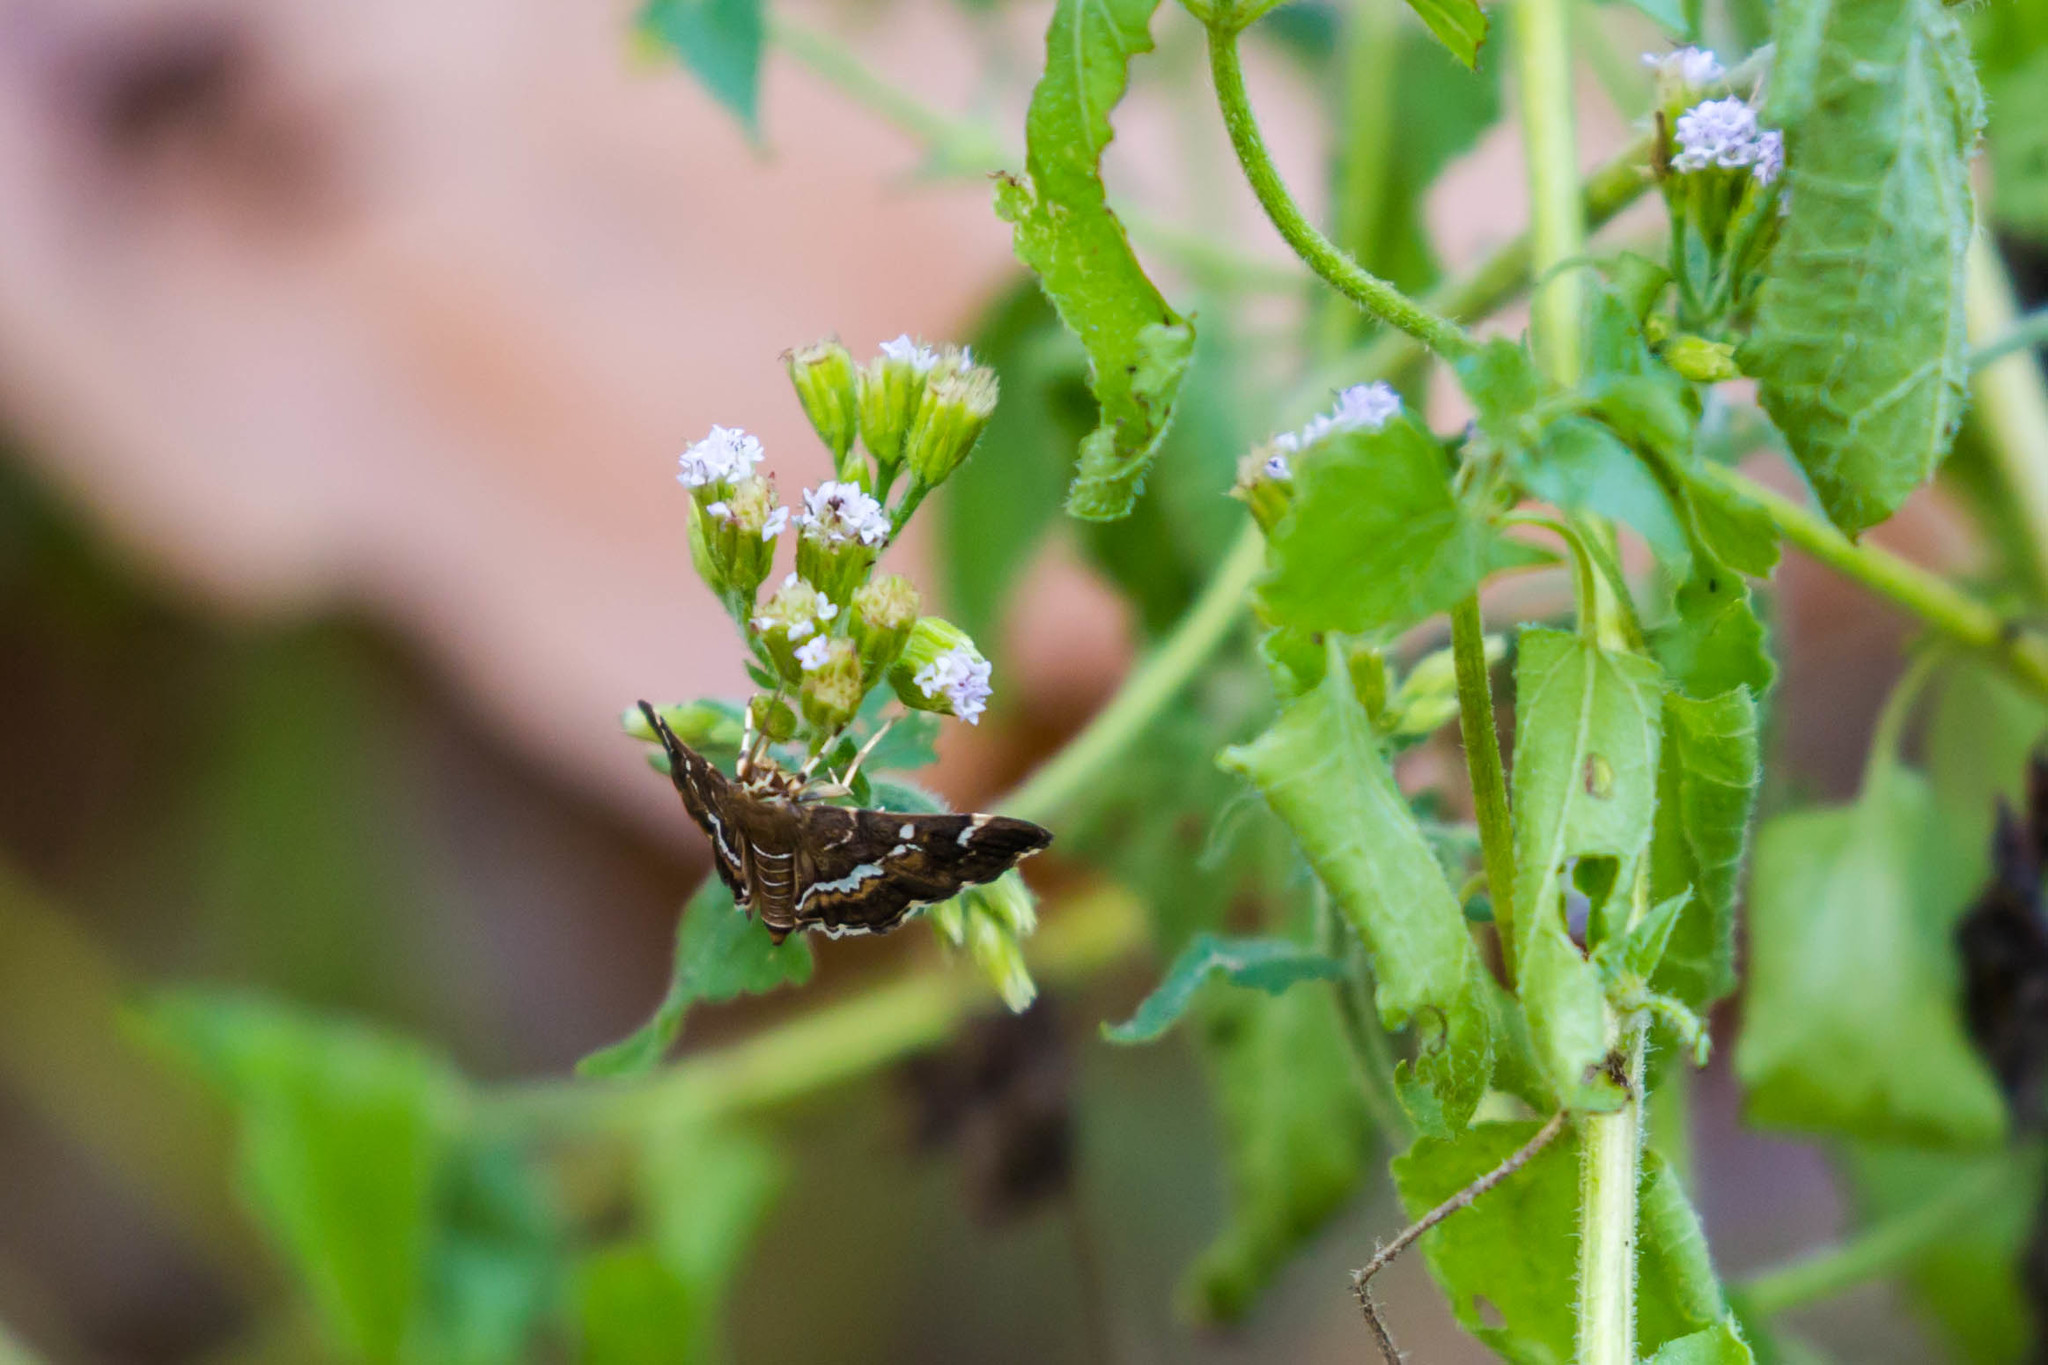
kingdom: Animalia
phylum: Arthropoda
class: Insecta
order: Lepidoptera
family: Crambidae
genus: Hymenia
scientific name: Hymenia perspectalis
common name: Spotted beet webworm
